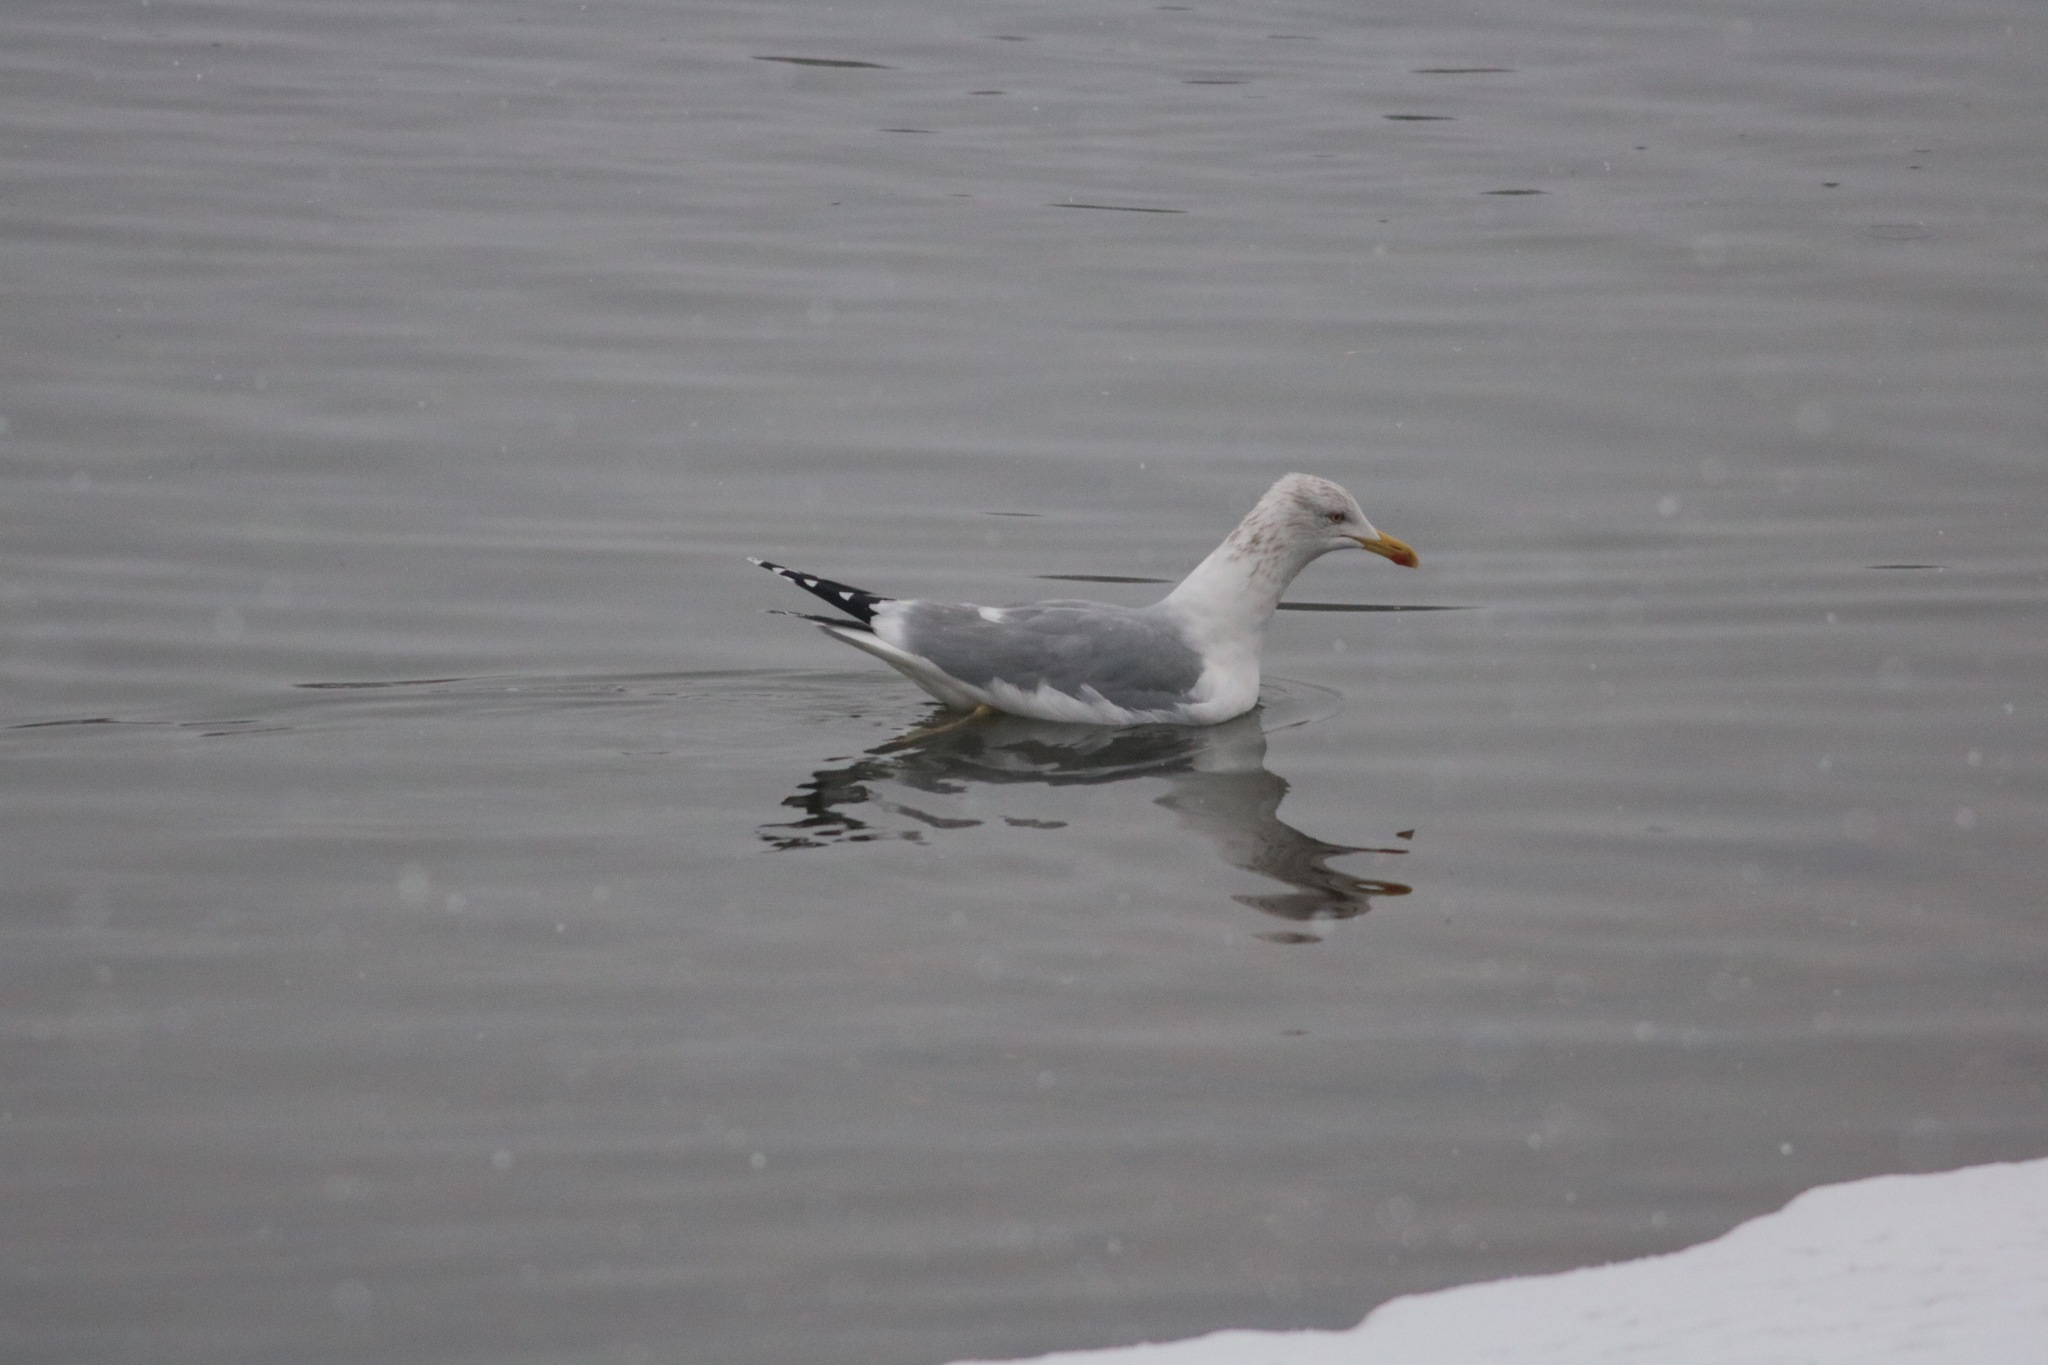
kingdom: Animalia
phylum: Chordata
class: Aves
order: Charadriiformes
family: Laridae
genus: Larus
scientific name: Larus argentatus
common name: Herring gull
